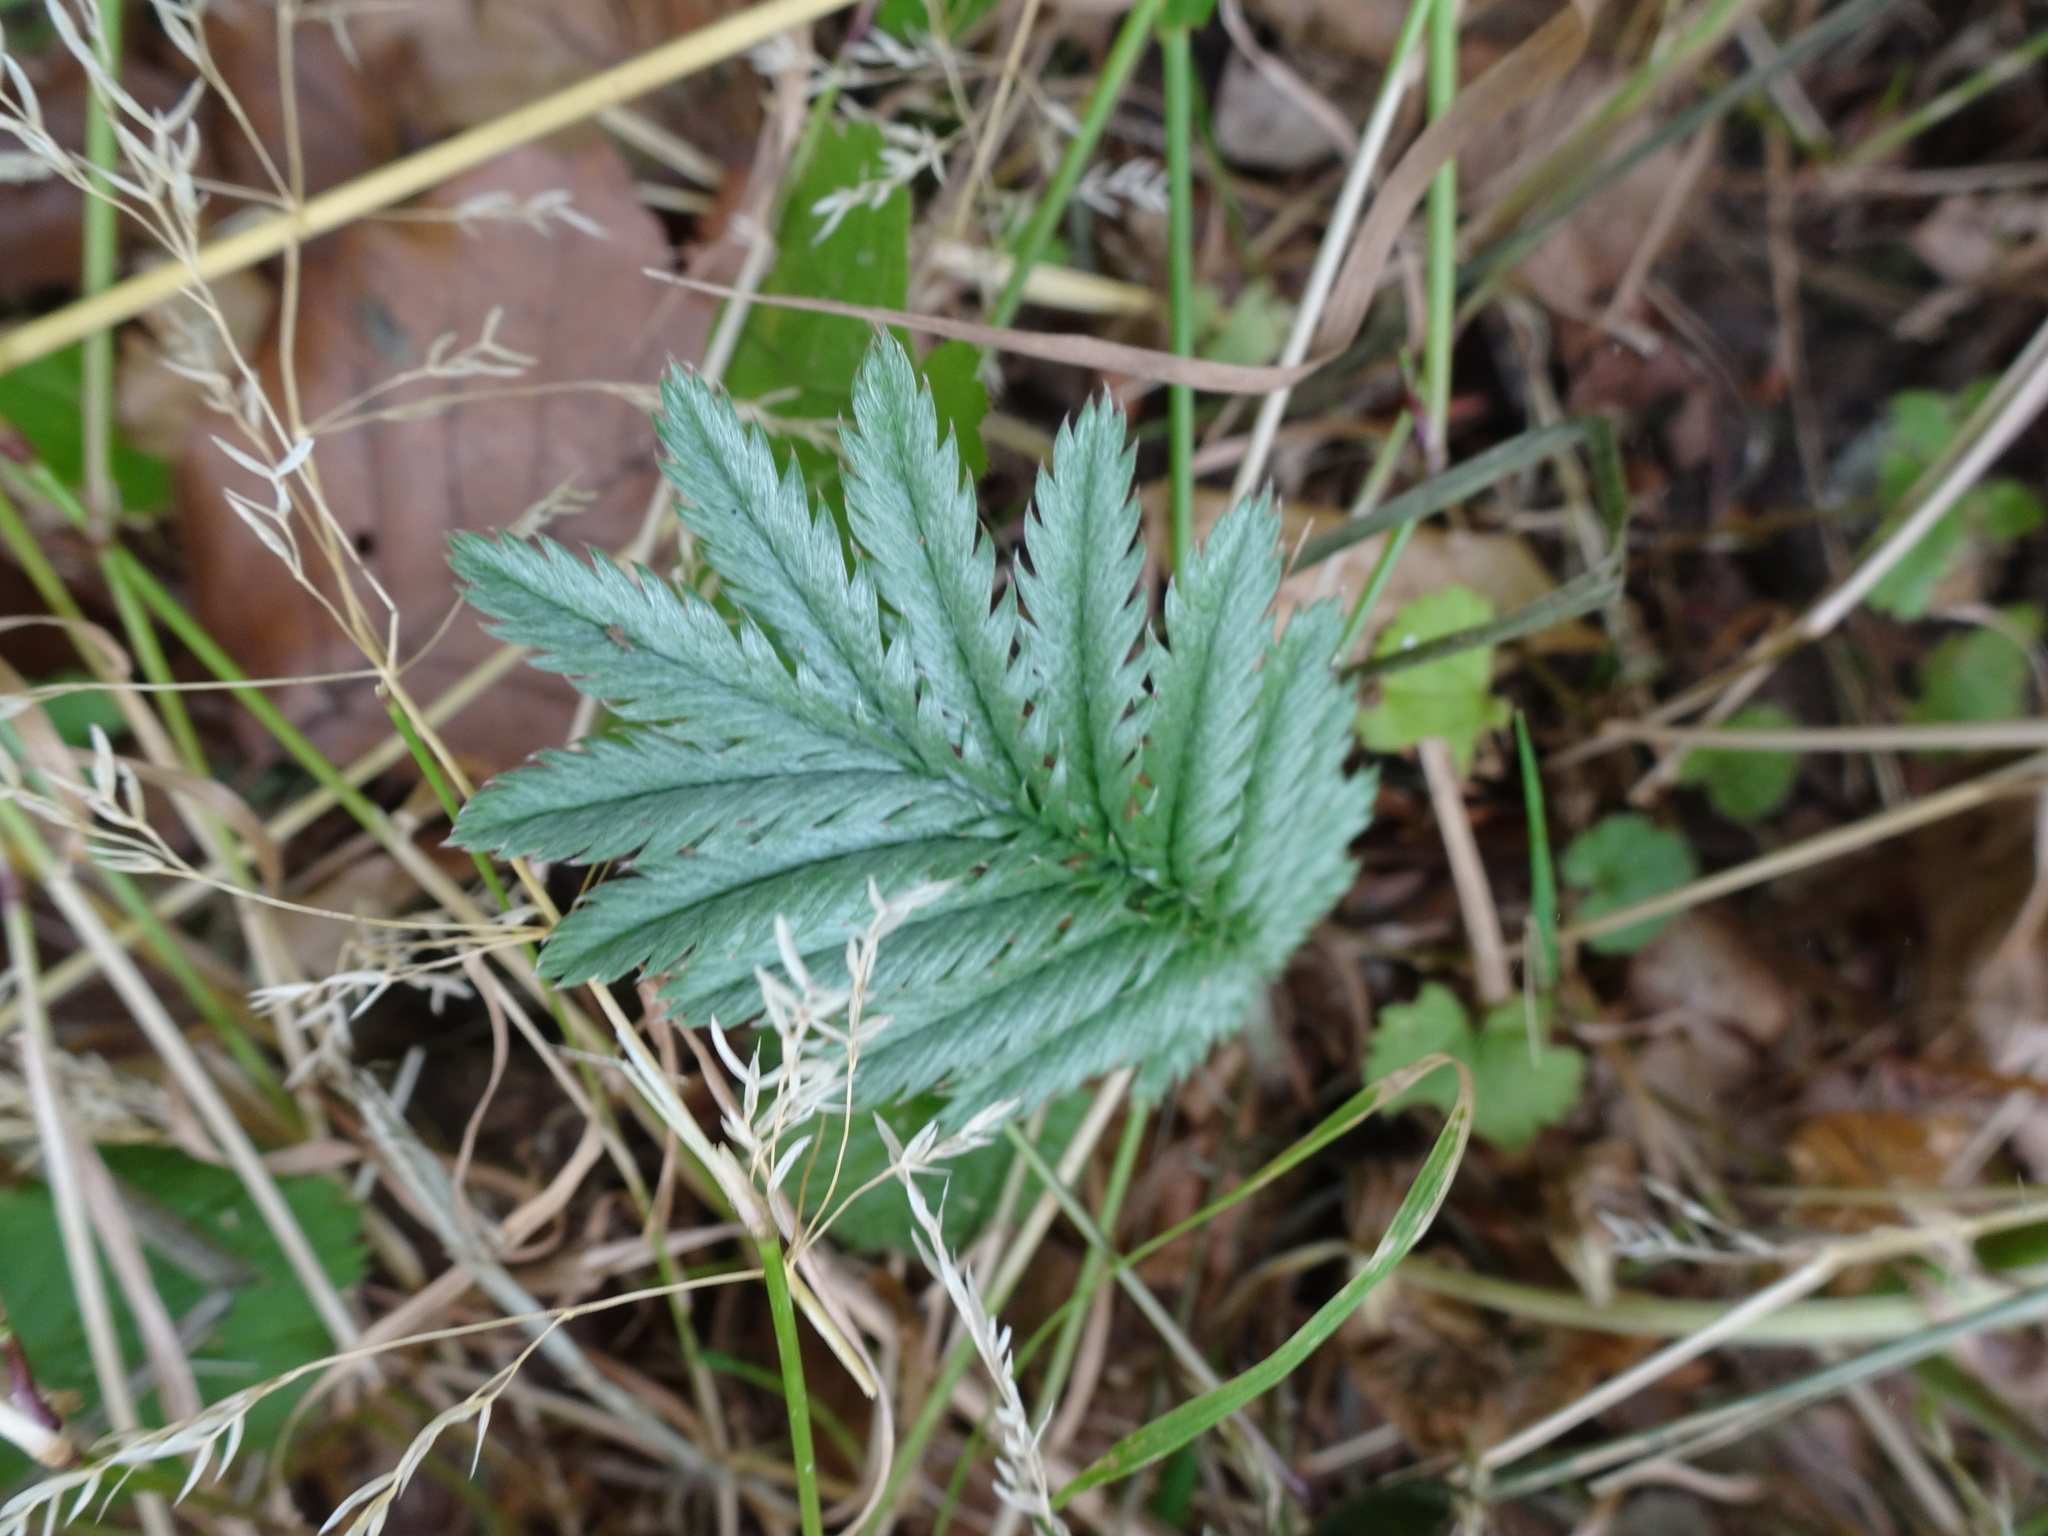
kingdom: Plantae
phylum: Tracheophyta
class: Magnoliopsida
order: Rosales
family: Rosaceae
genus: Argentina
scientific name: Argentina anserina
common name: Common silverweed
